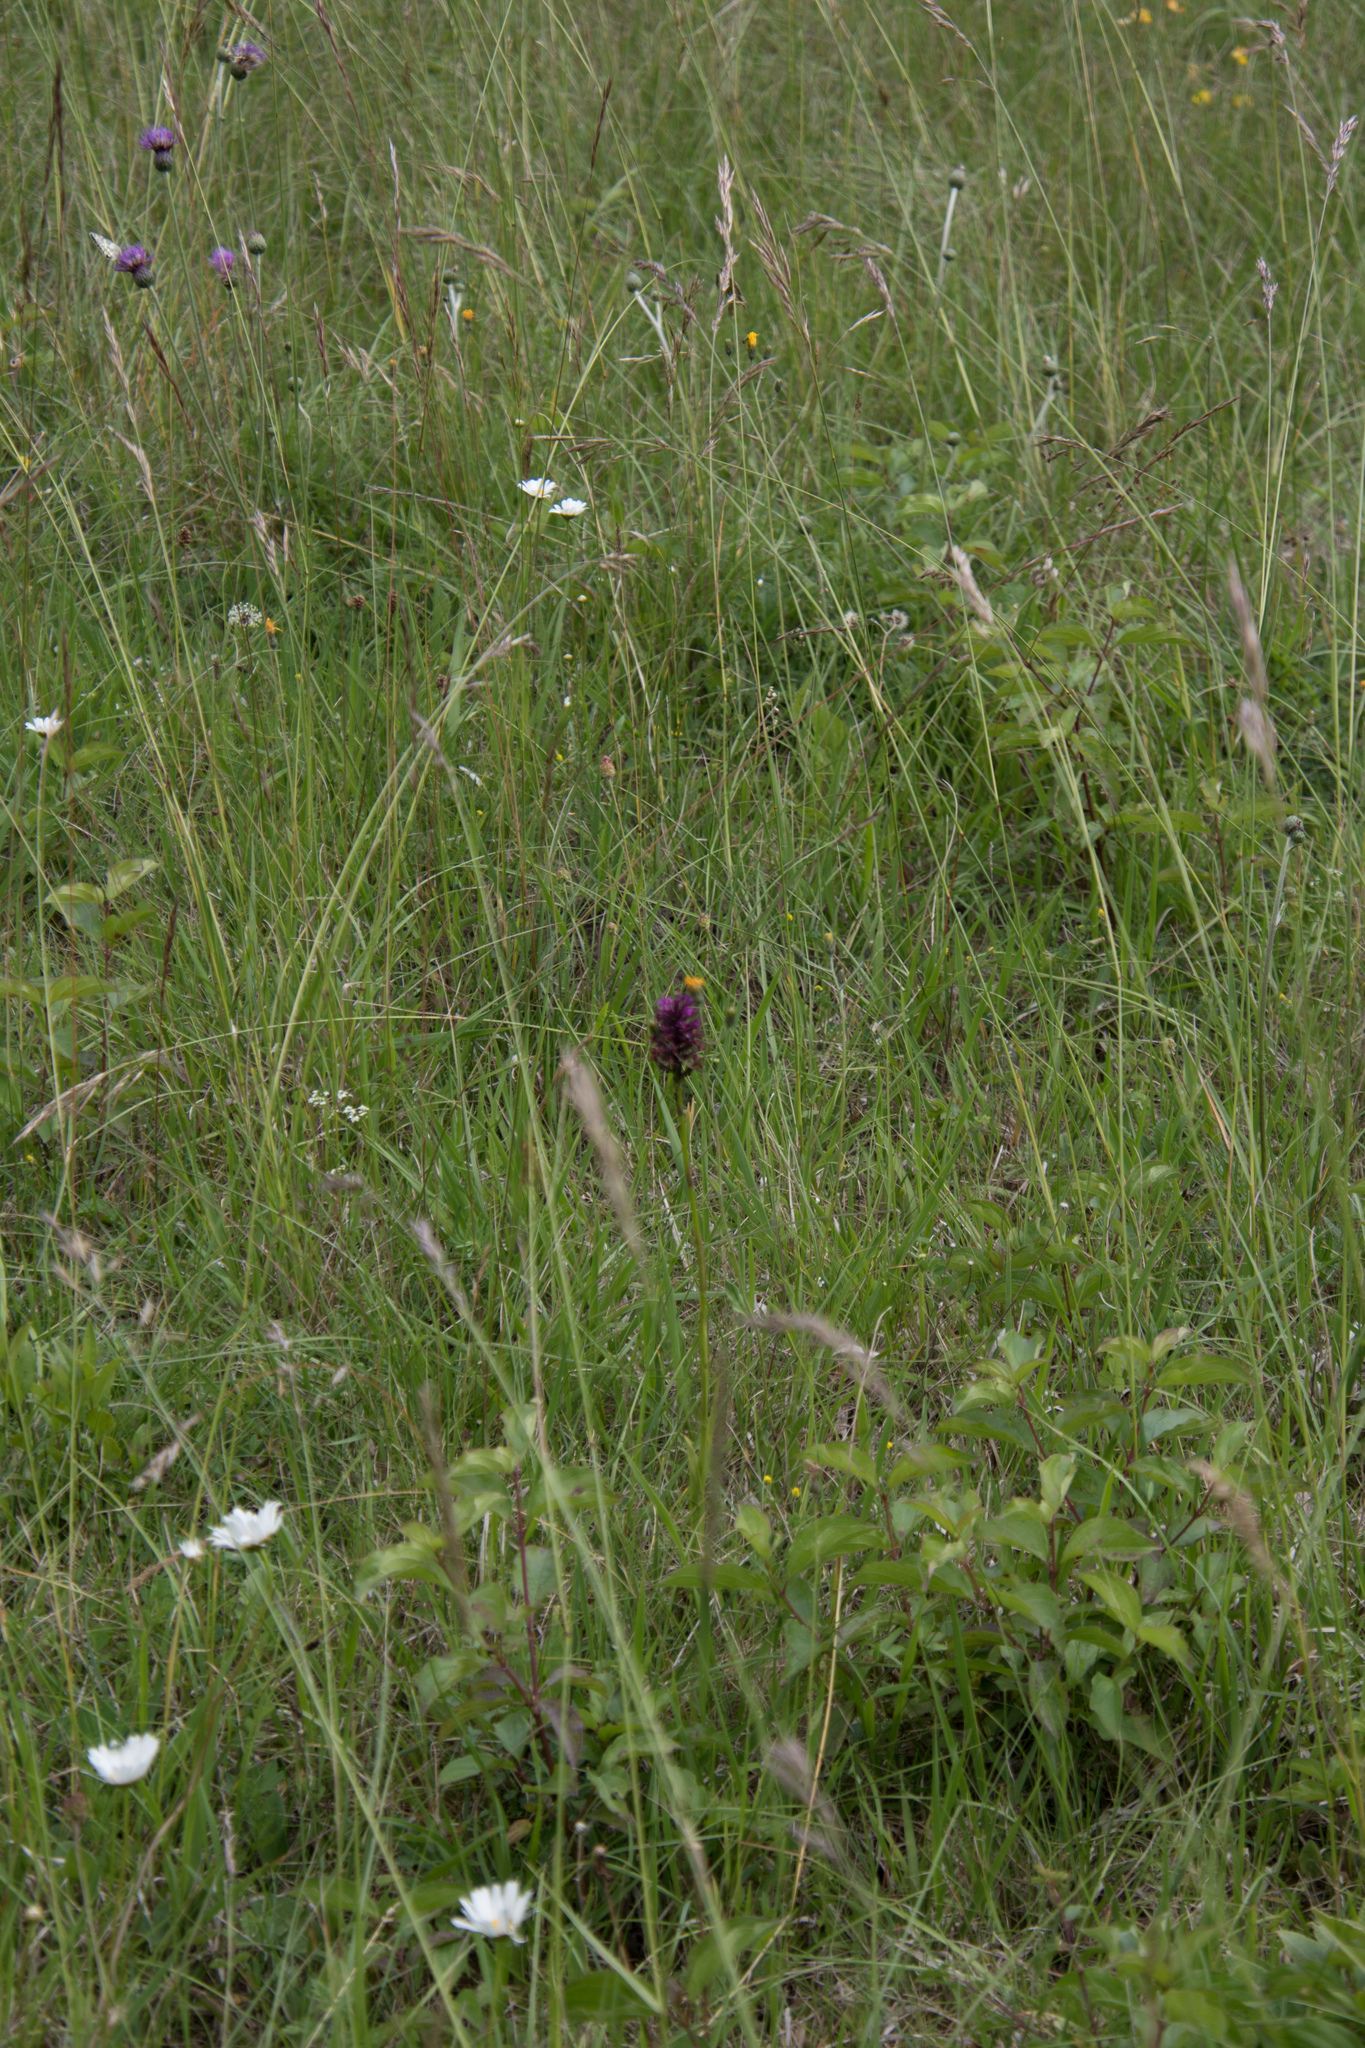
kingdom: Plantae
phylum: Tracheophyta
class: Liliopsida
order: Asparagales
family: Orchidaceae
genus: Anacamptis
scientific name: Anacamptis pyramidalis
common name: Pyramidal orchid
